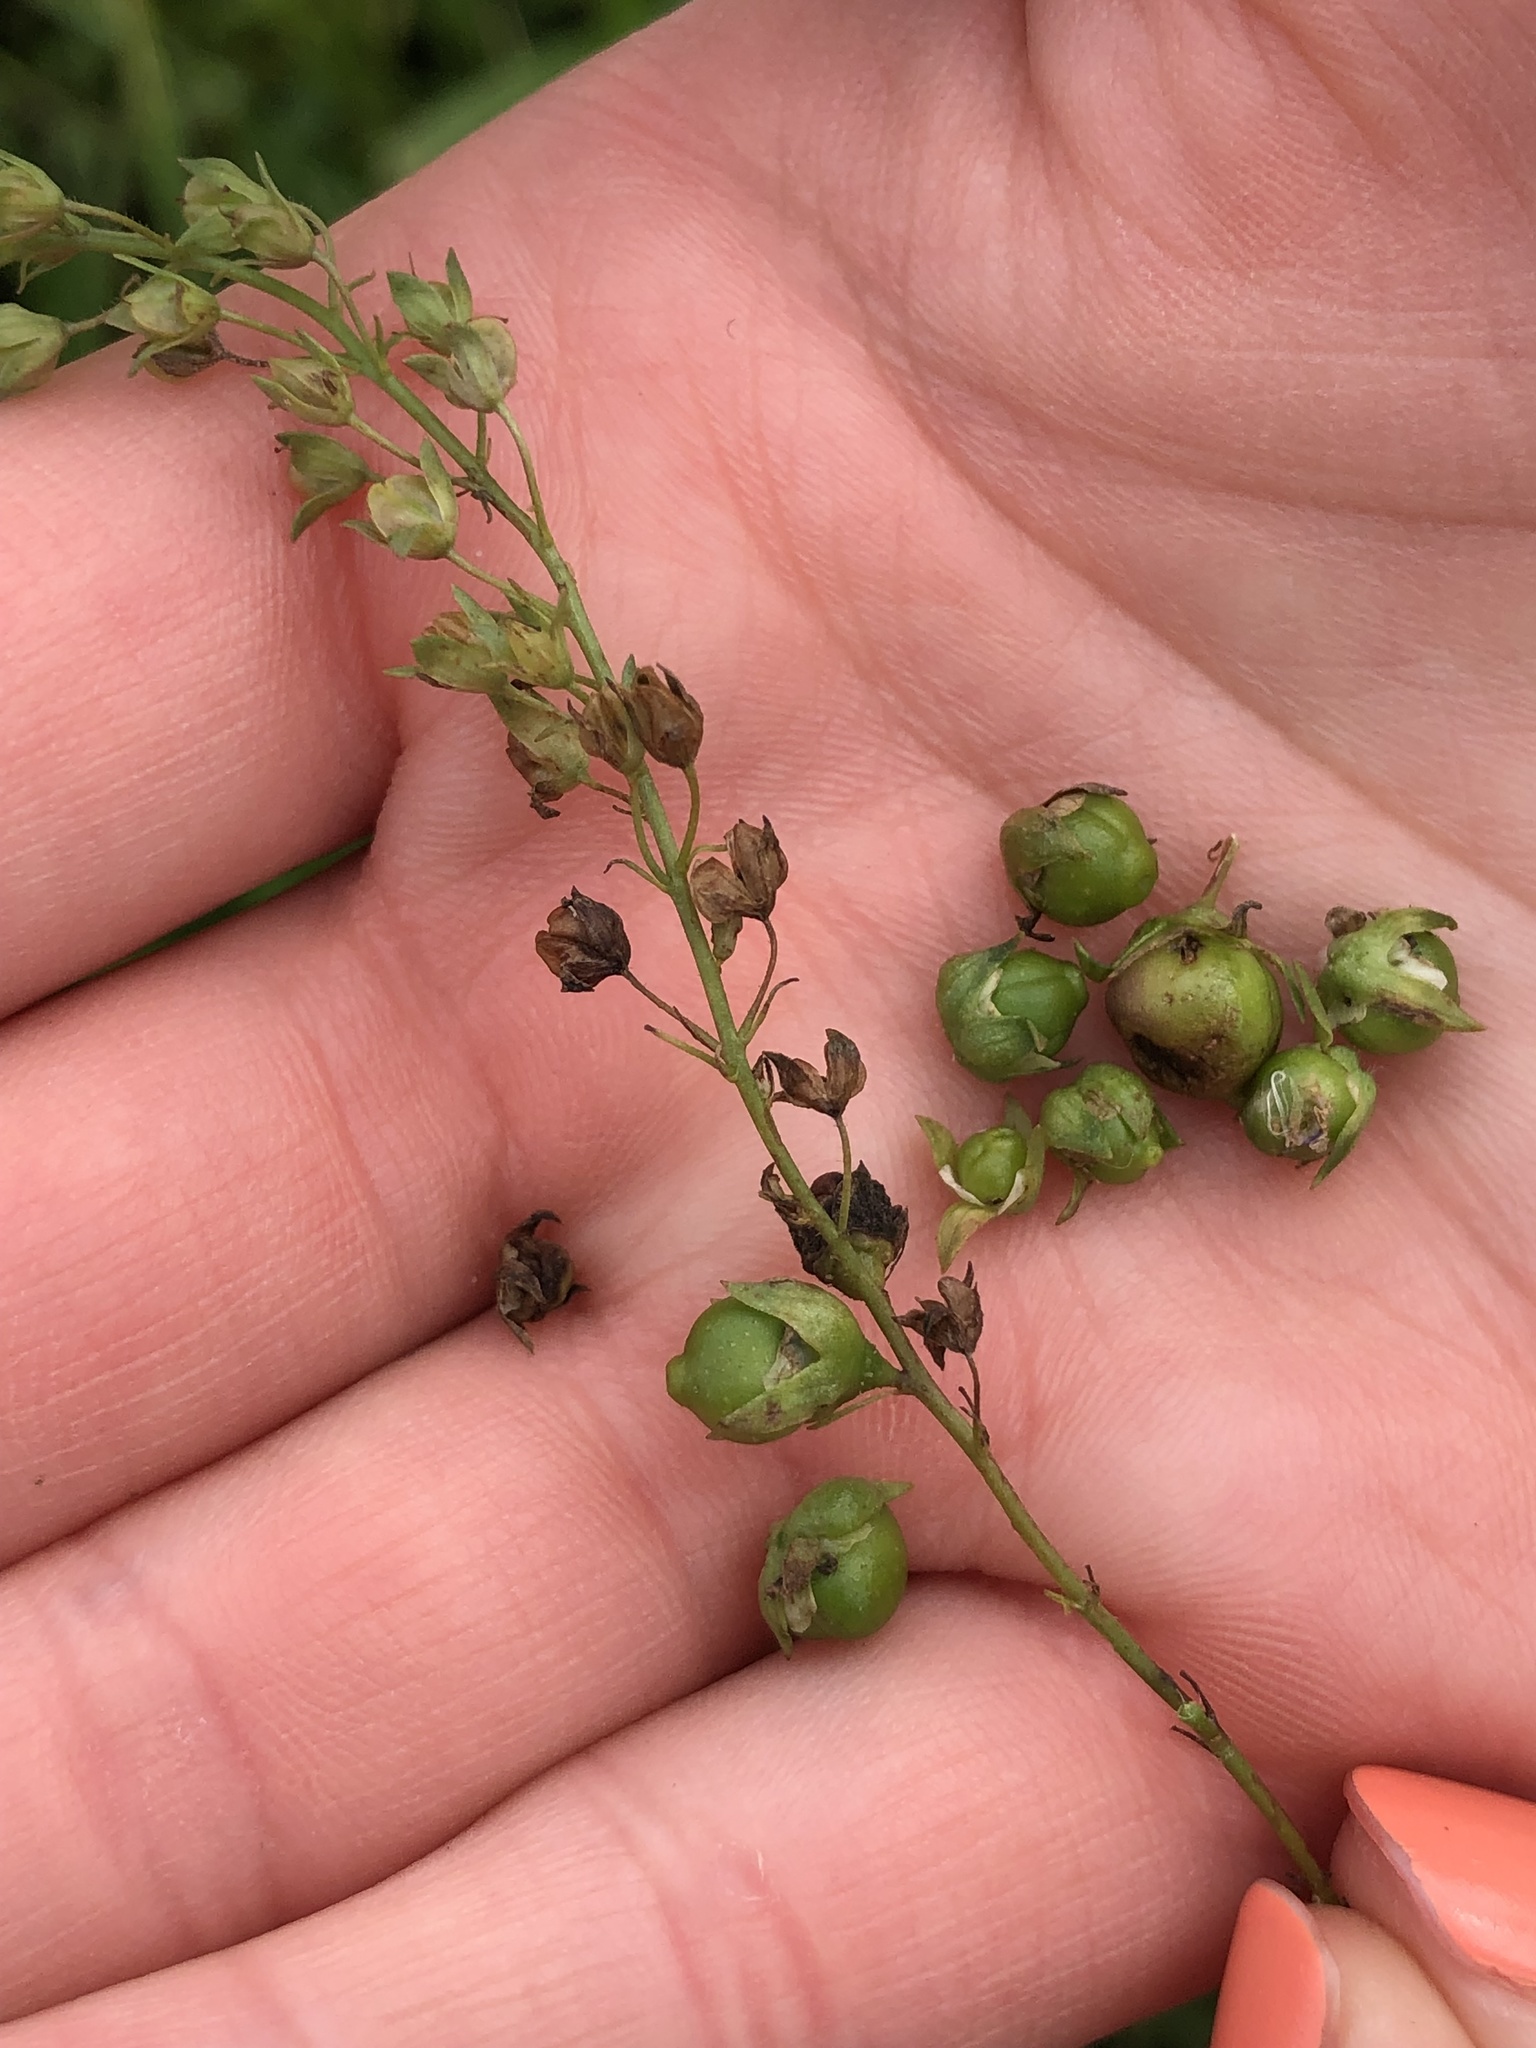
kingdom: Animalia
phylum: Arthropoda
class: Insecta
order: Coleoptera
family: Curculionidae
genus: Gymnetron
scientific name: Gymnetron villosulum
